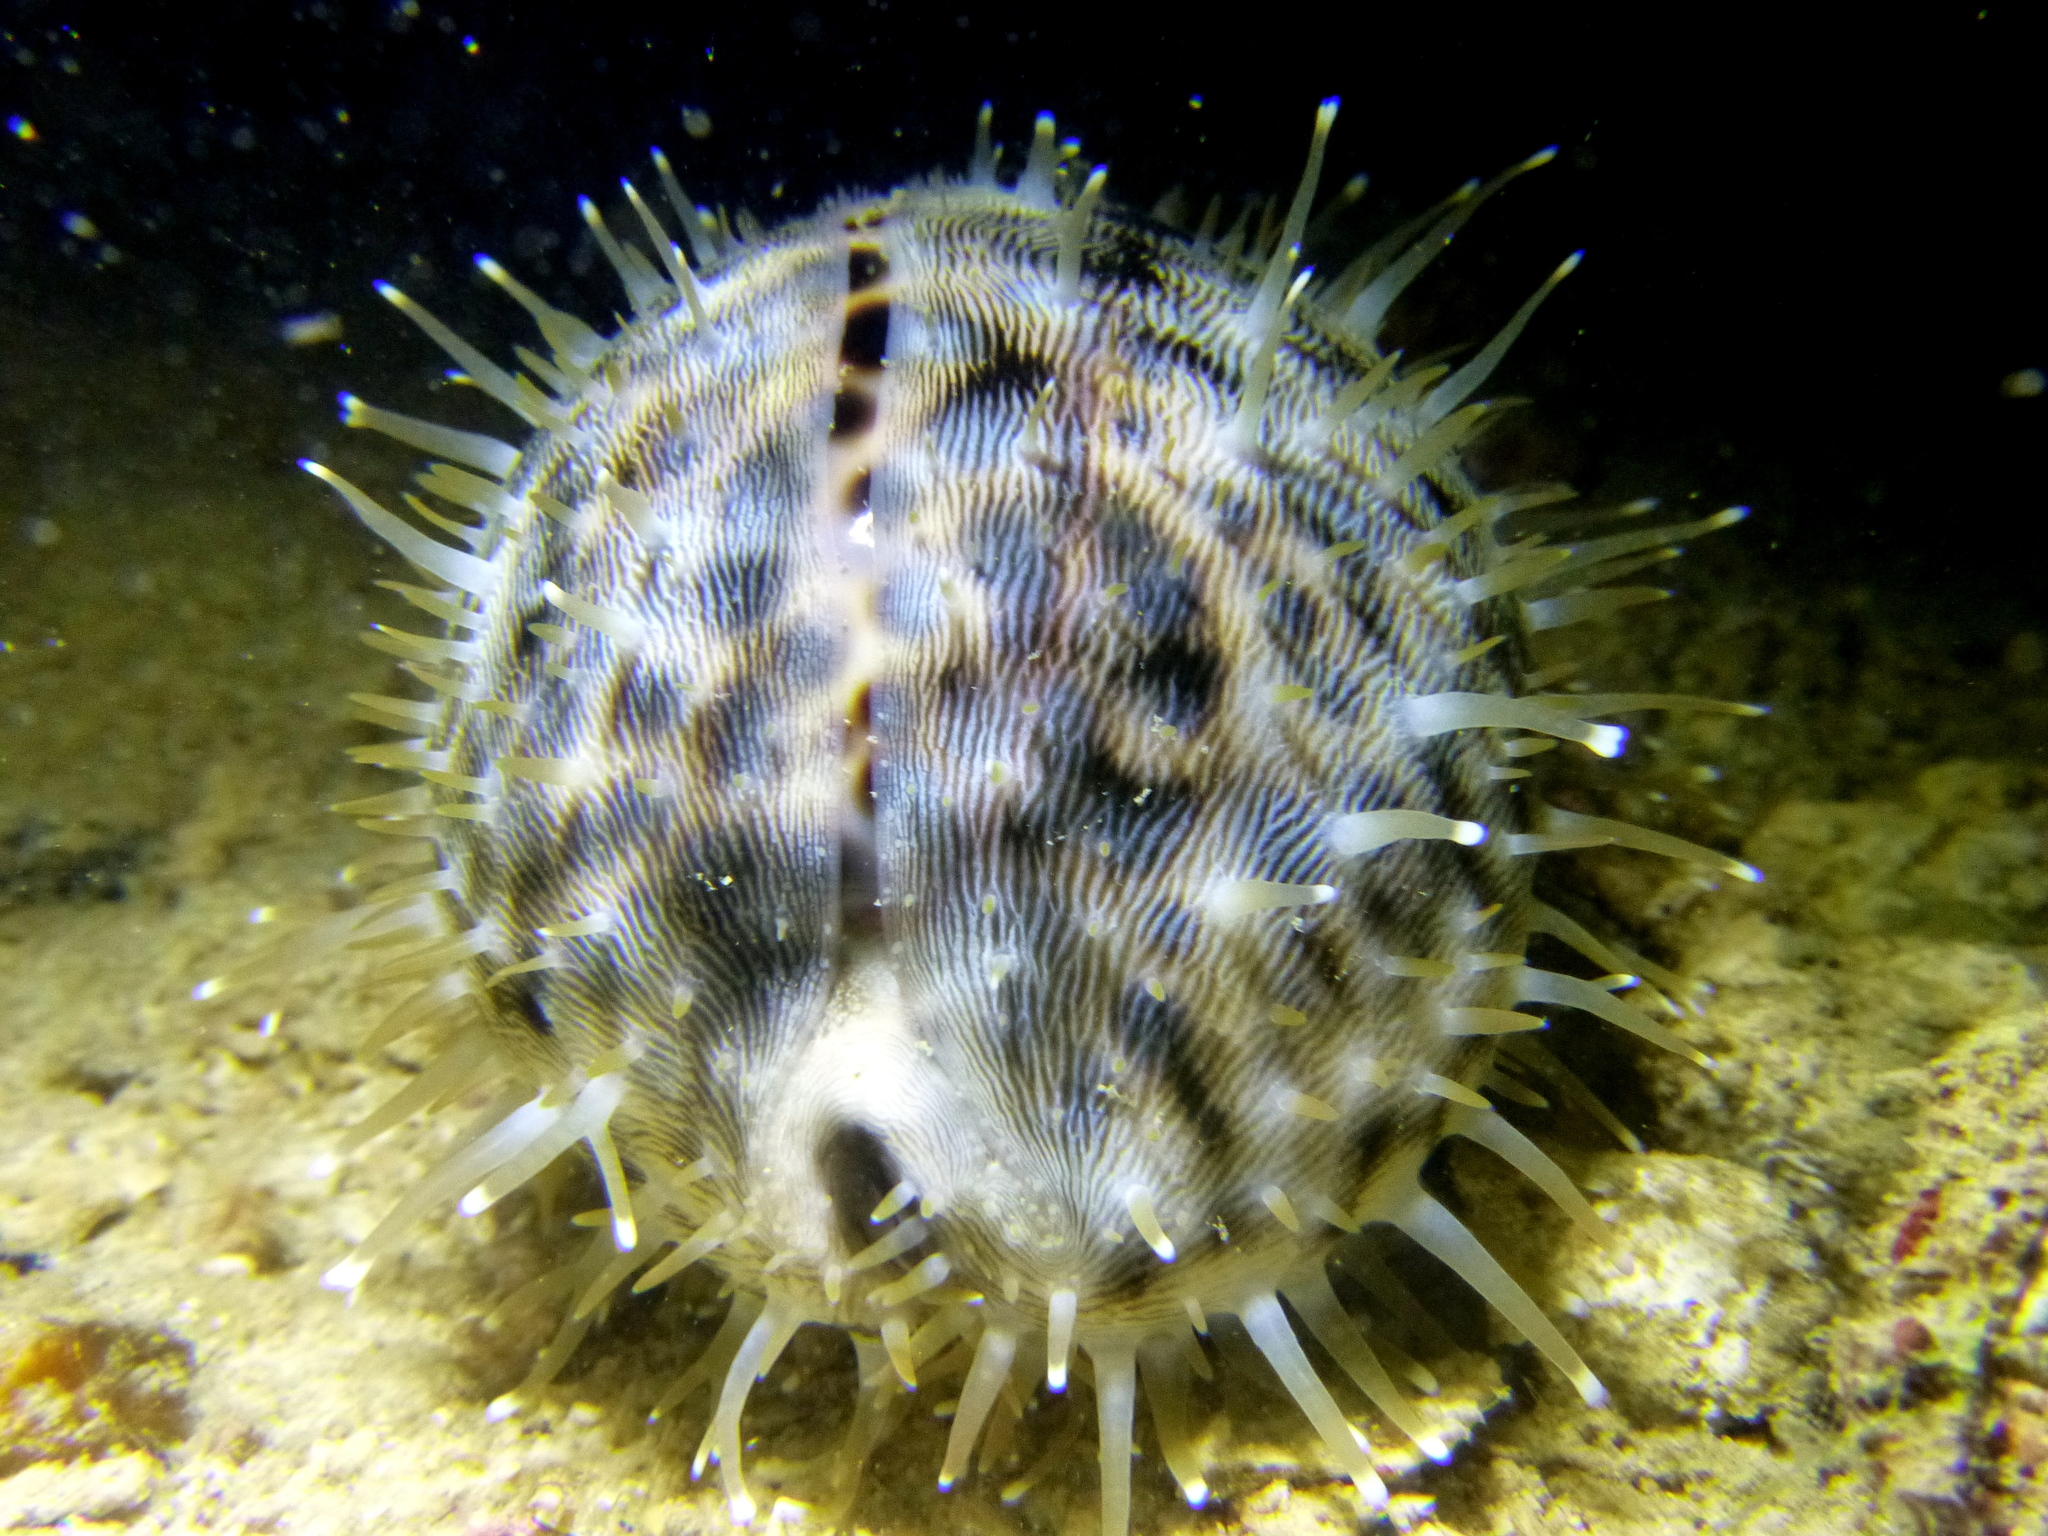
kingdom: Animalia
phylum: Mollusca
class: Gastropoda
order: Littorinimorpha
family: Cypraeidae
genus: Cypraea
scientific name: Cypraea tigris
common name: Tiger cowrie
